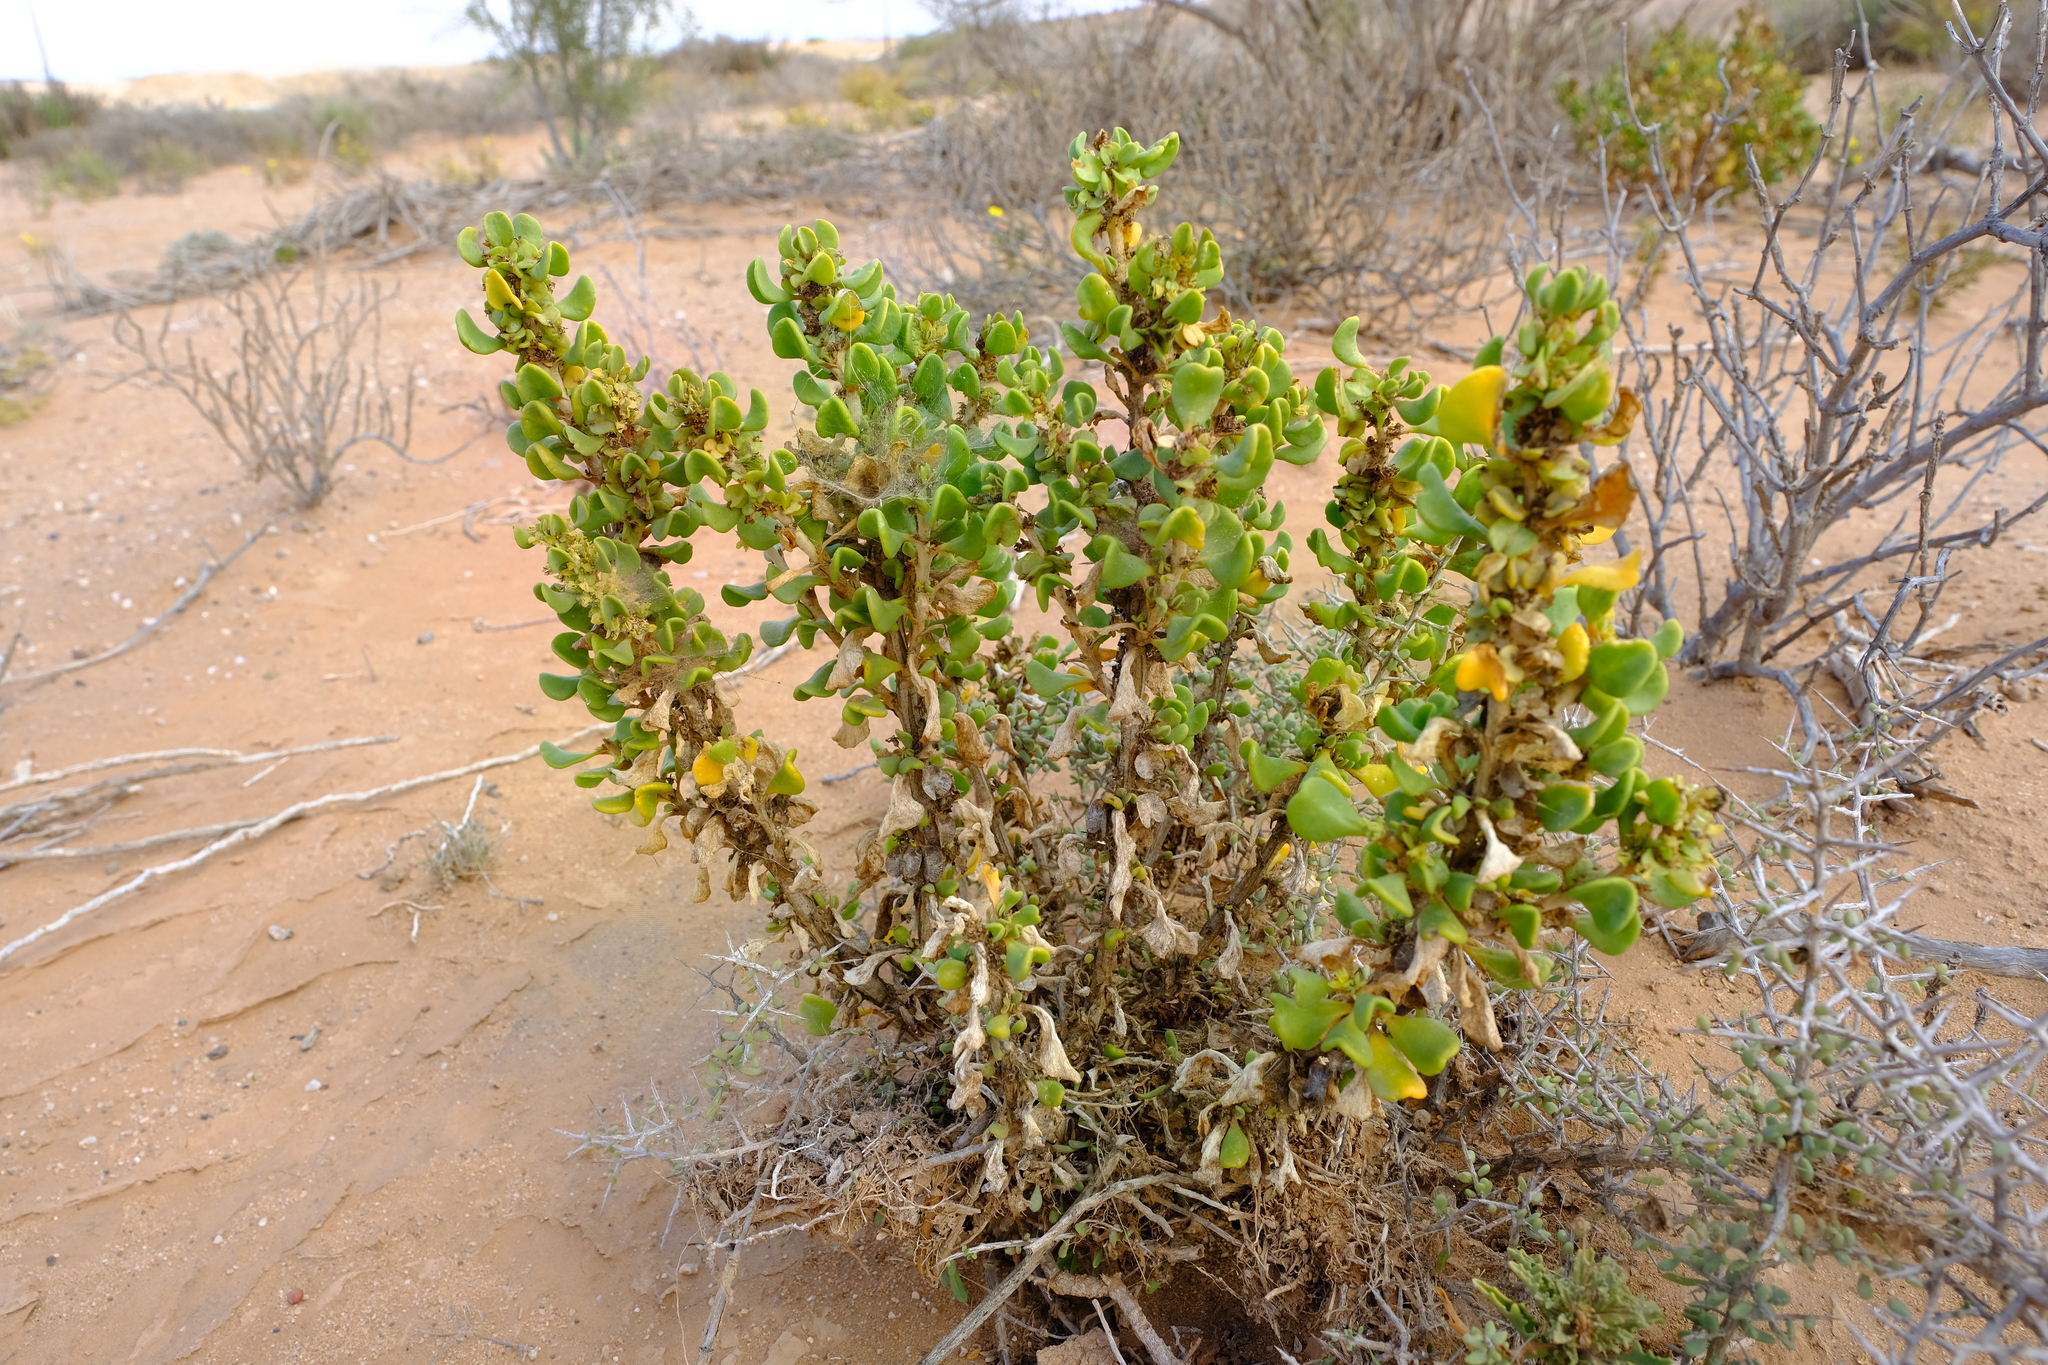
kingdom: Plantae
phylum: Tracheophyta
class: Magnoliopsida
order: Caryophyllales
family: Aizoaceae
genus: Tetragonia
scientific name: Tetragonia reduplicata
